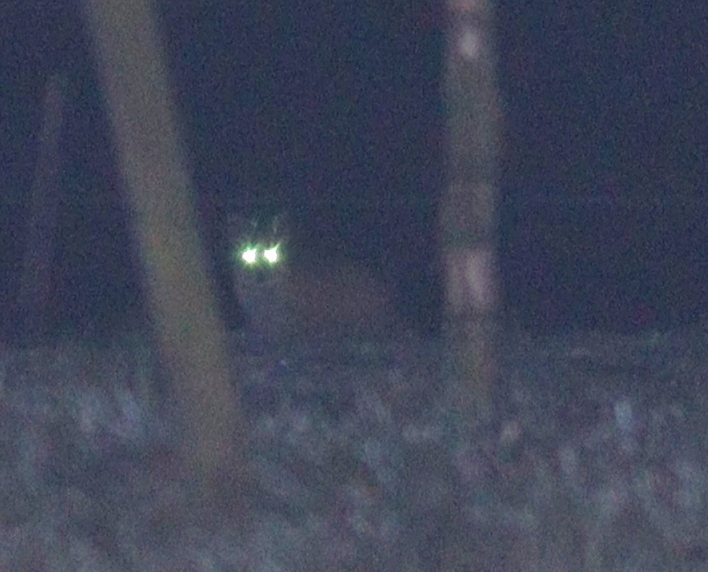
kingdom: Animalia
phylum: Chordata
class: Mammalia
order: Carnivora
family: Canidae
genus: Vulpes
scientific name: Vulpes vulpes
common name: Red fox
